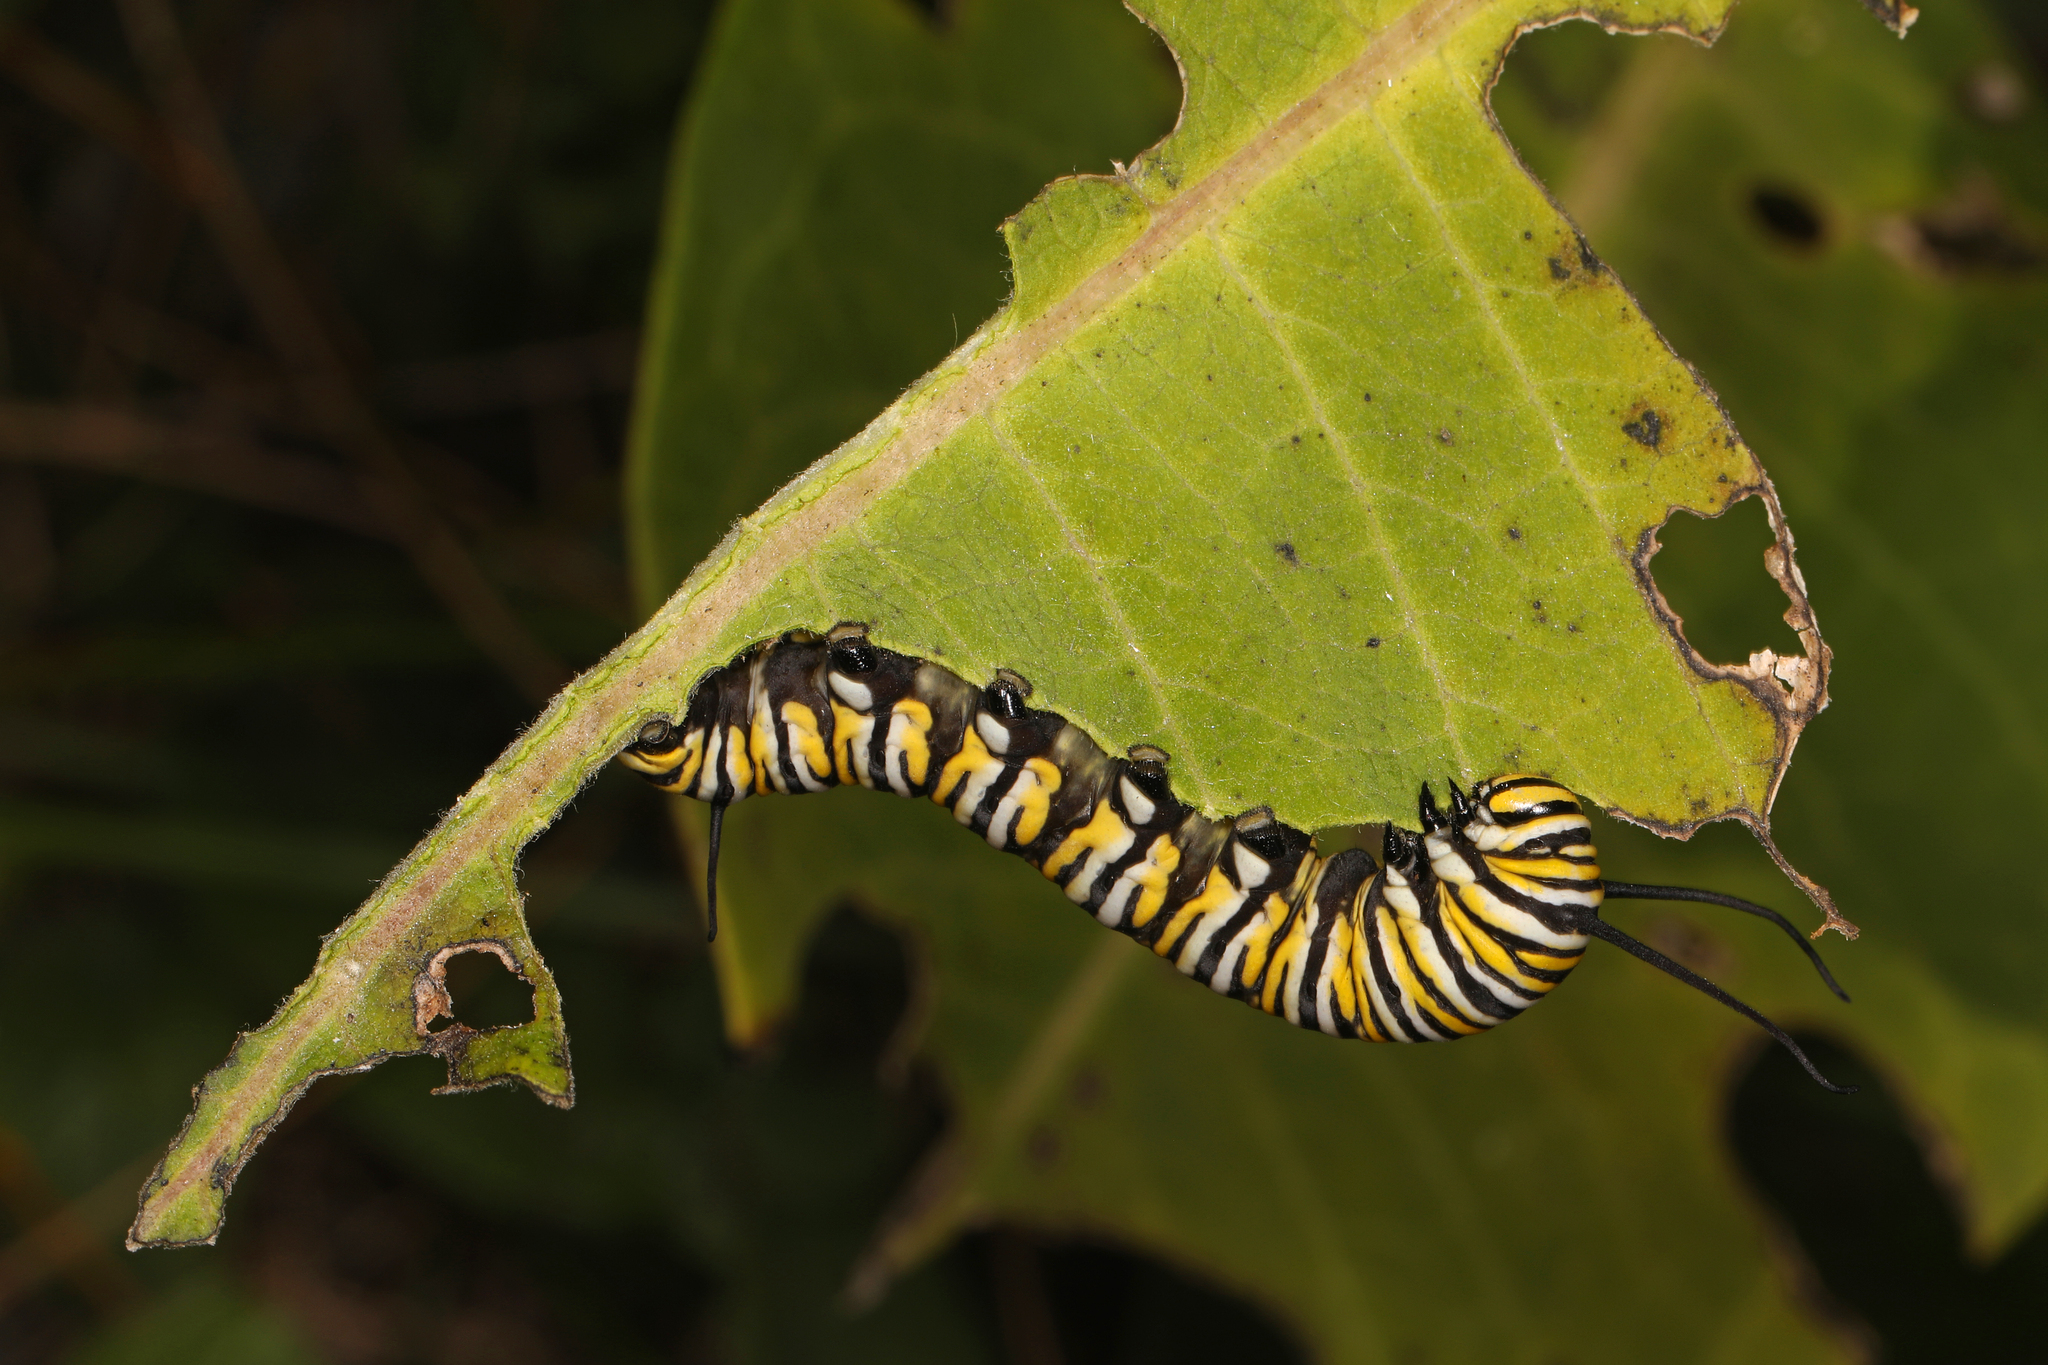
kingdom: Animalia
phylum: Arthropoda
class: Insecta
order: Lepidoptera
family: Nymphalidae
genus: Danaus
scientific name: Danaus plexippus
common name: Monarch
